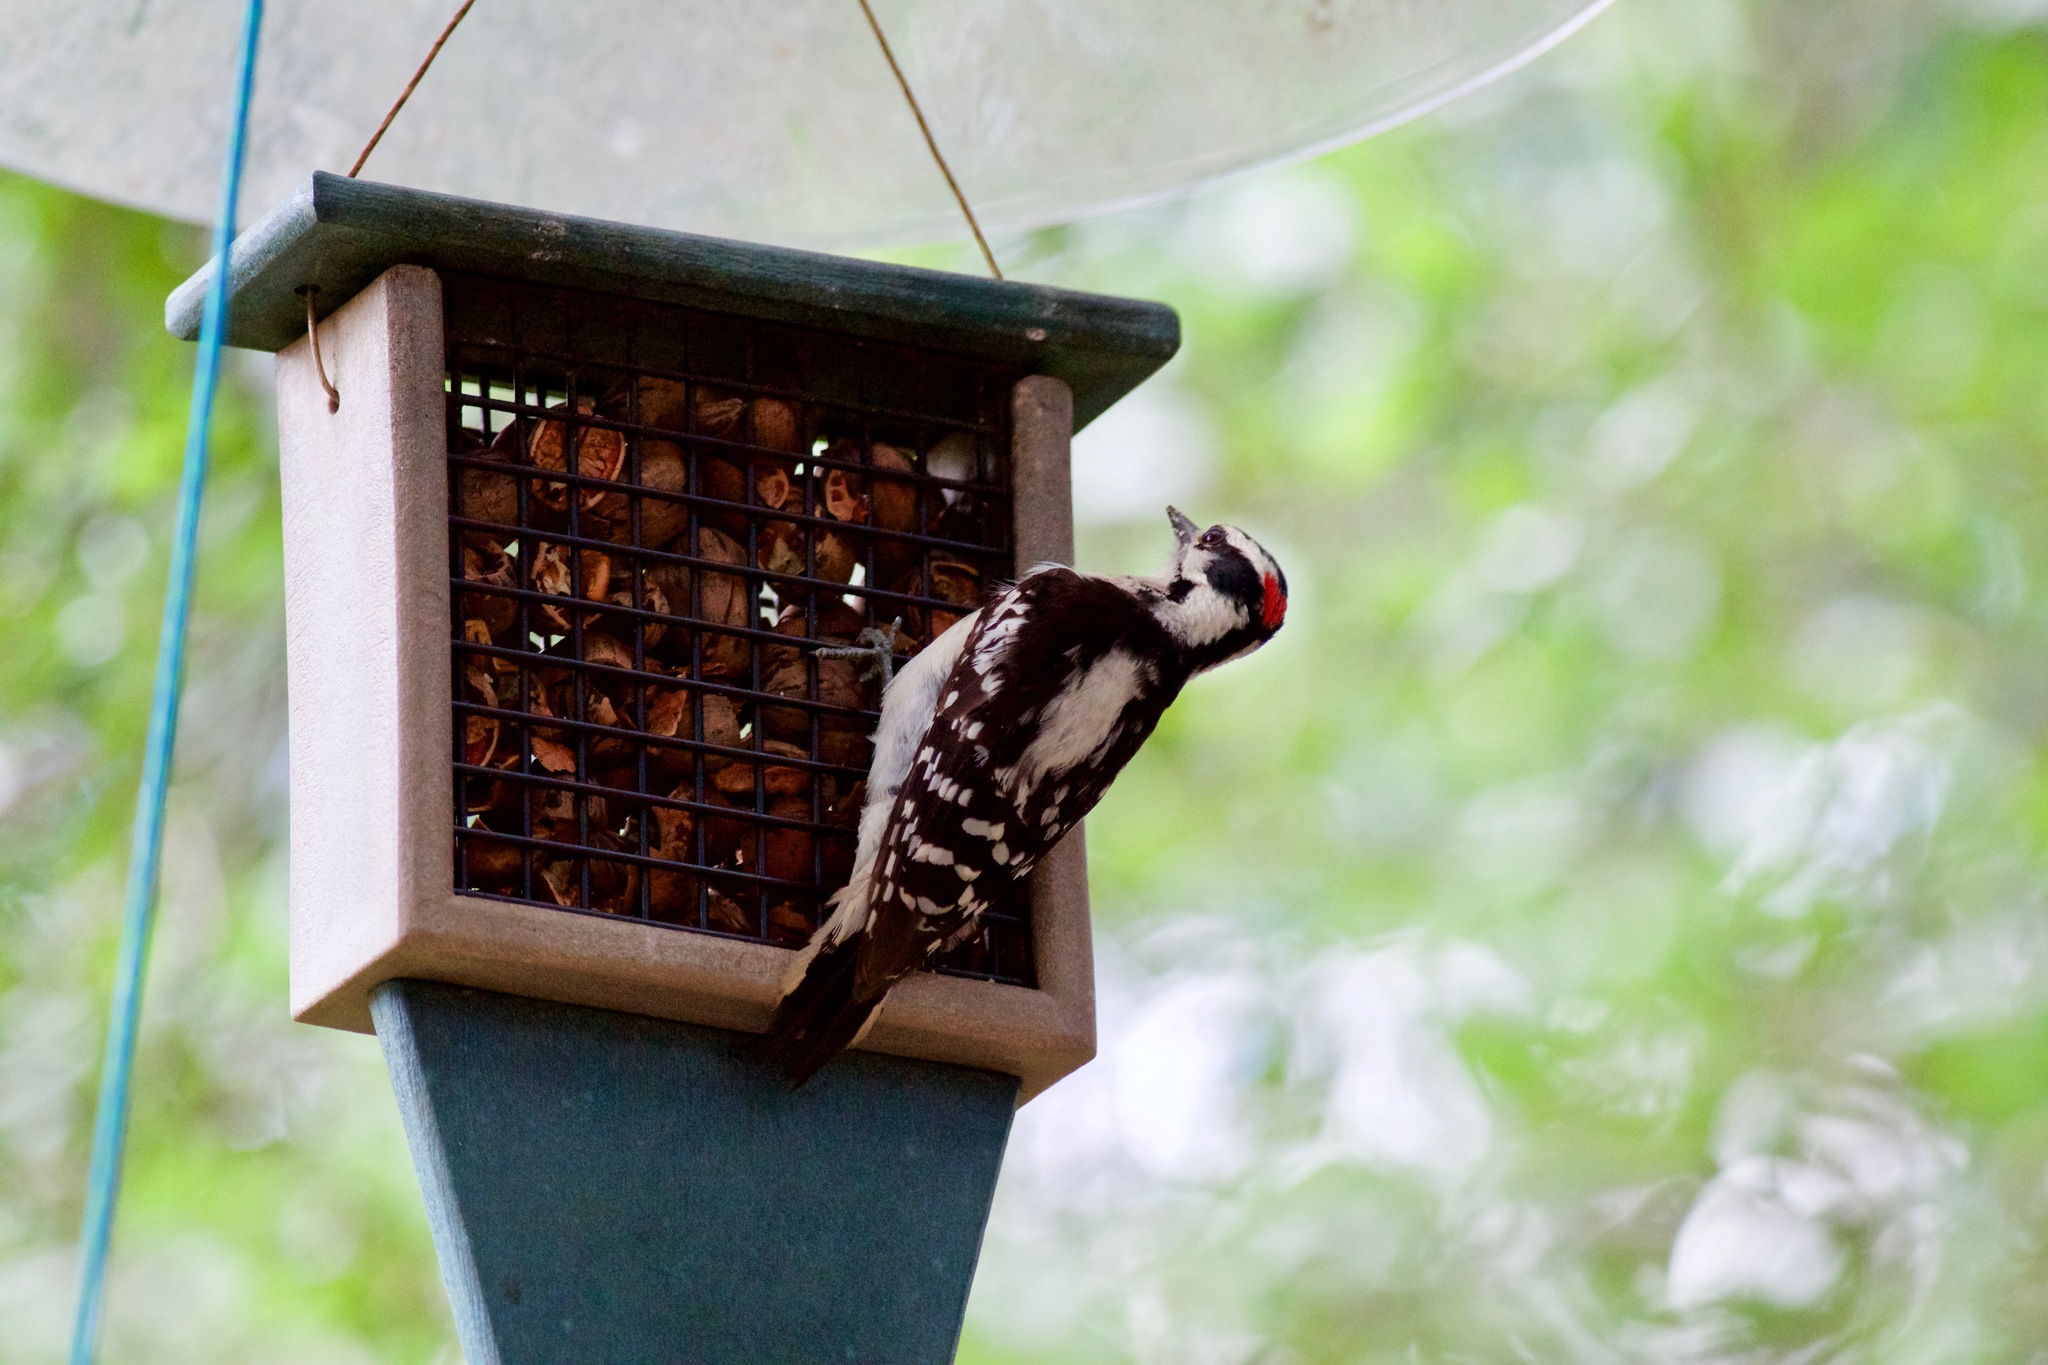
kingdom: Animalia
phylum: Chordata
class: Aves
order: Piciformes
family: Picidae
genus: Dryobates
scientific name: Dryobates pubescens
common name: Downy woodpecker
